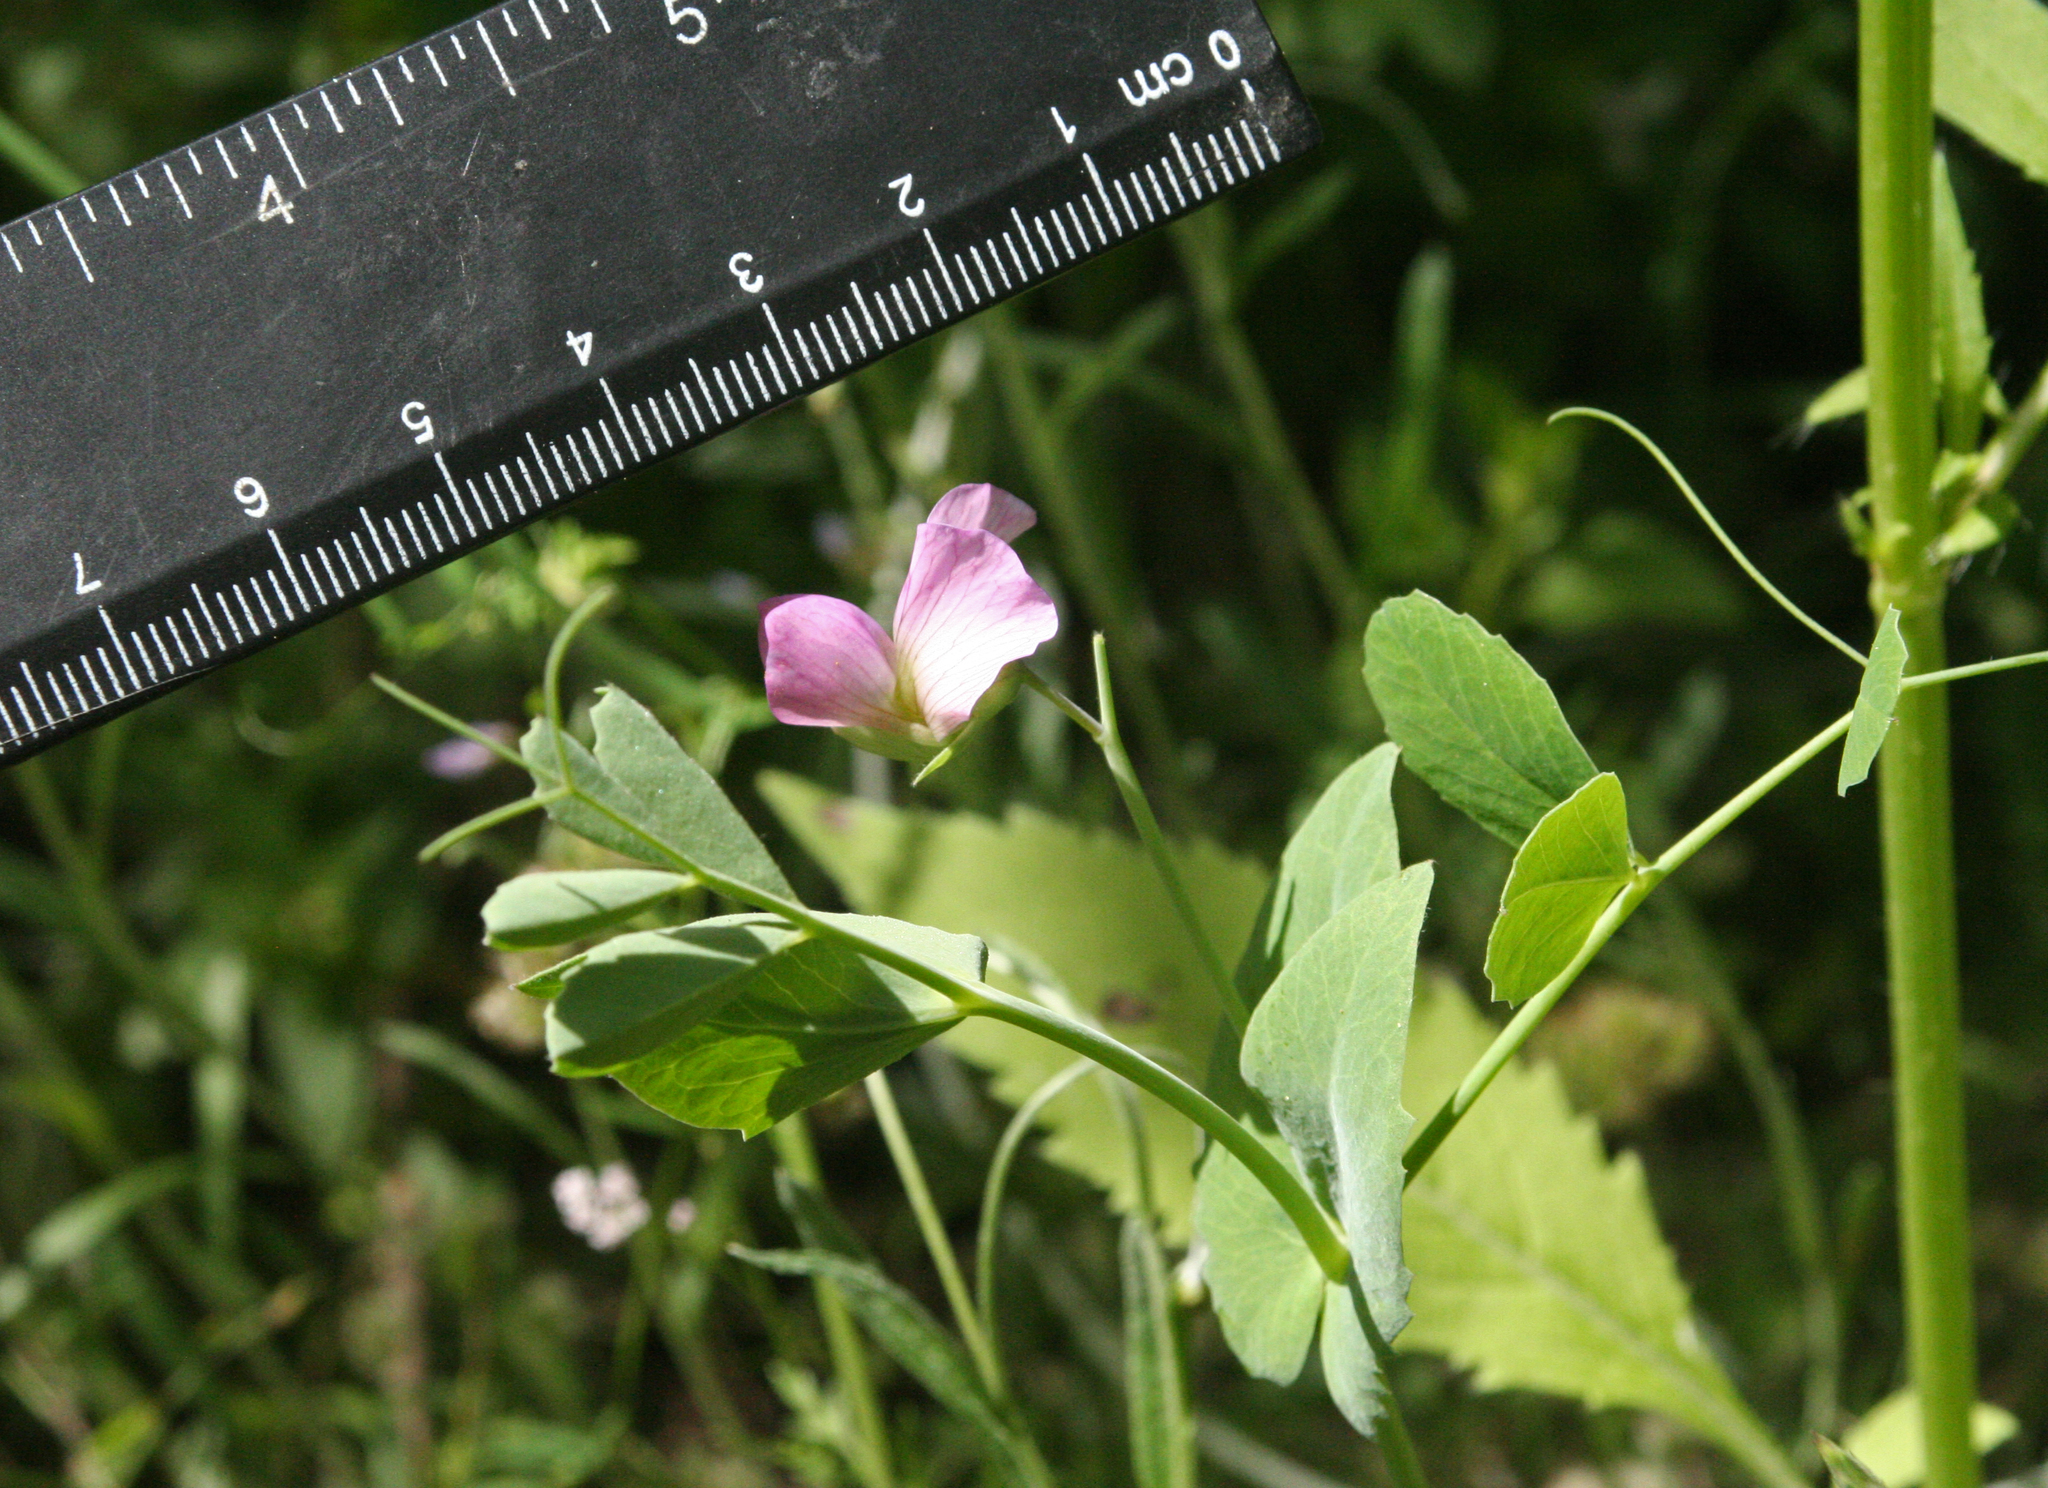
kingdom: Plantae
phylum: Tracheophyta
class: Magnoliopsida
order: Fabales
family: Fabaceae
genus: Lathyrus
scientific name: Lathyrus oleraceus
